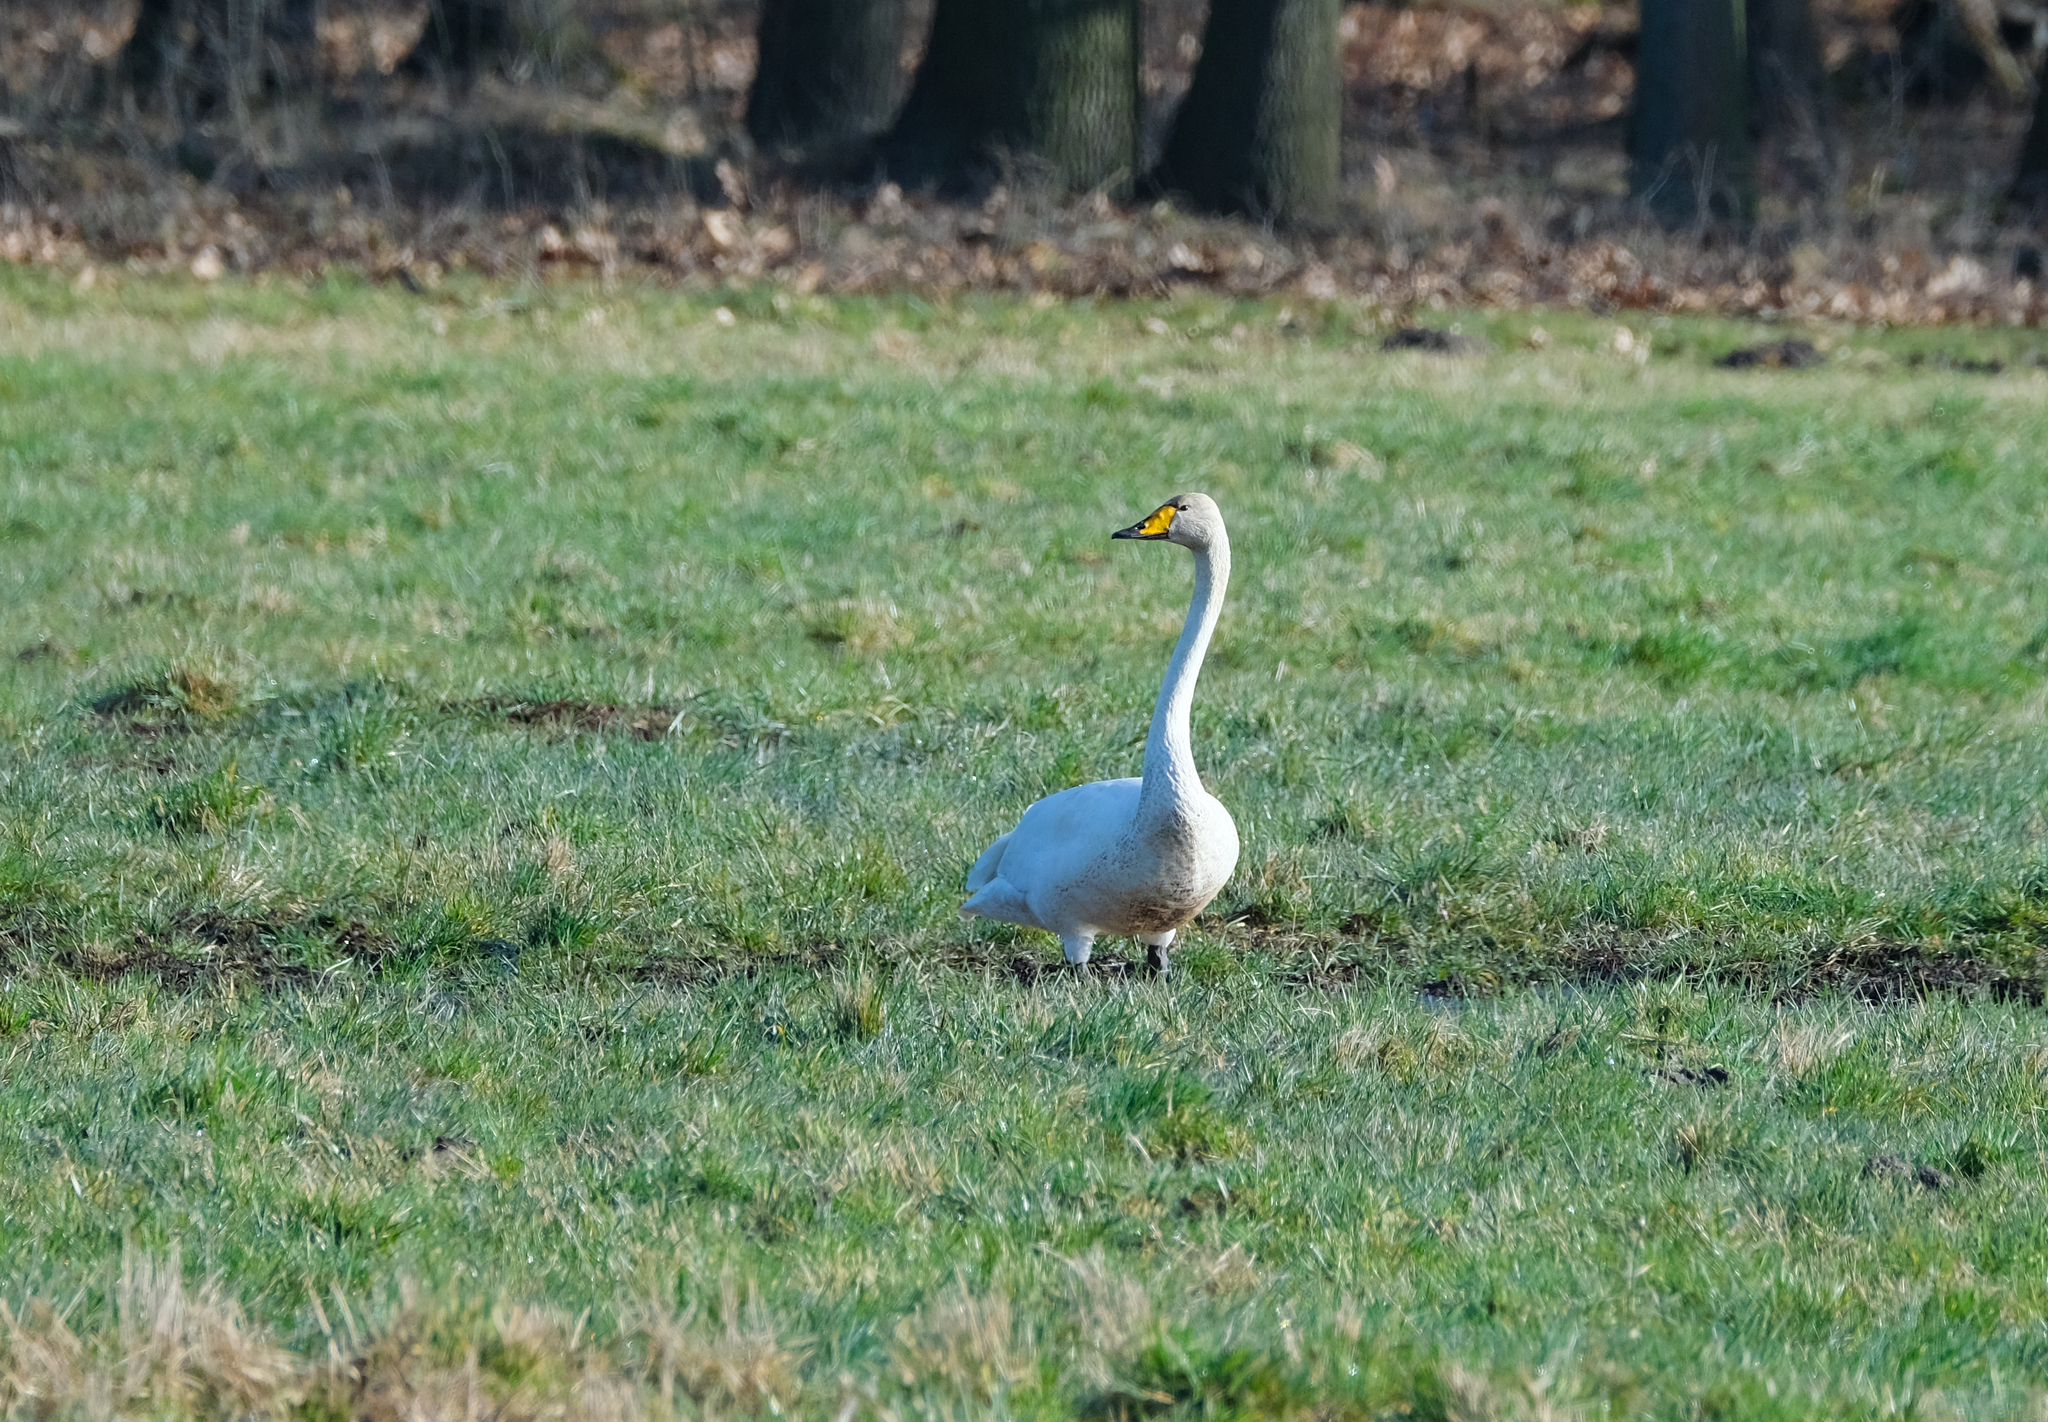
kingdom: Animalia
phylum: Chordata
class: Aves
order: Anseriformes
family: Anatidae
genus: Cygnus
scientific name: Cygnus cygnus
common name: Whooper swan
